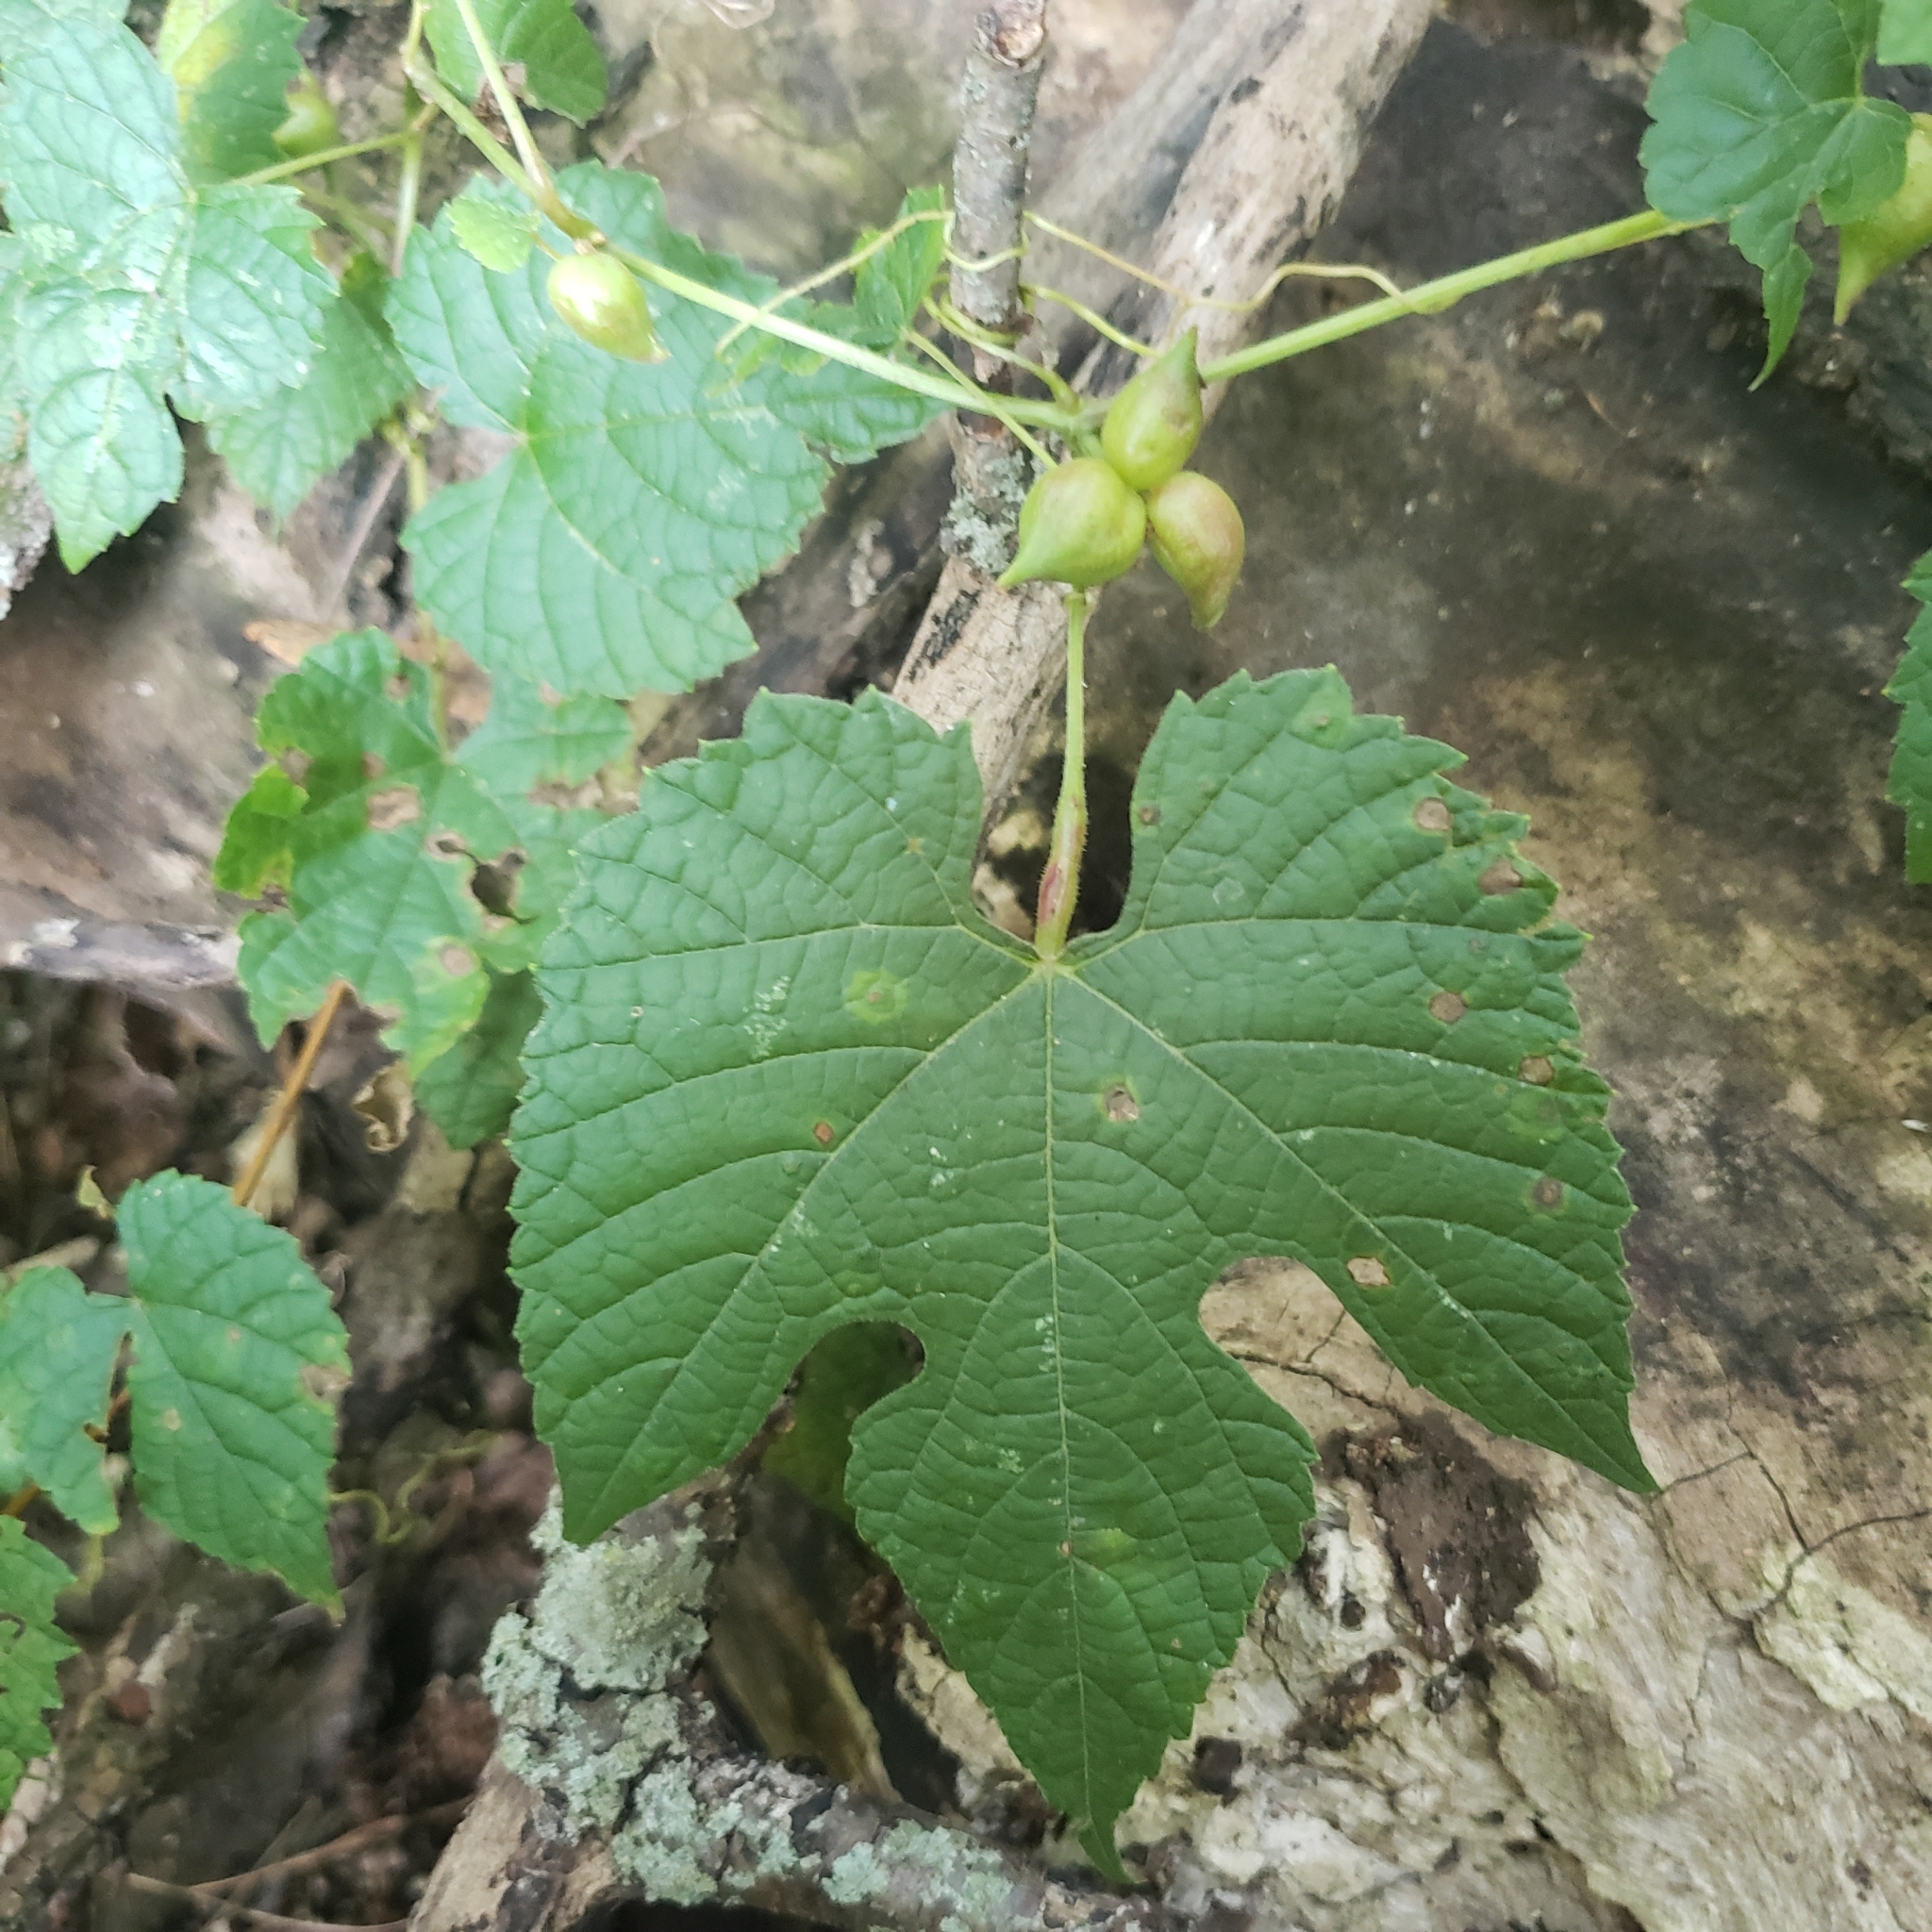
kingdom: Animalia
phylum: Arthropoda
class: Insecta
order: Diptera
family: Cecidomyiidae
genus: Ampelomyia
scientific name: Ampelomyia vitiscoryloides
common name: Grape filbert gall
